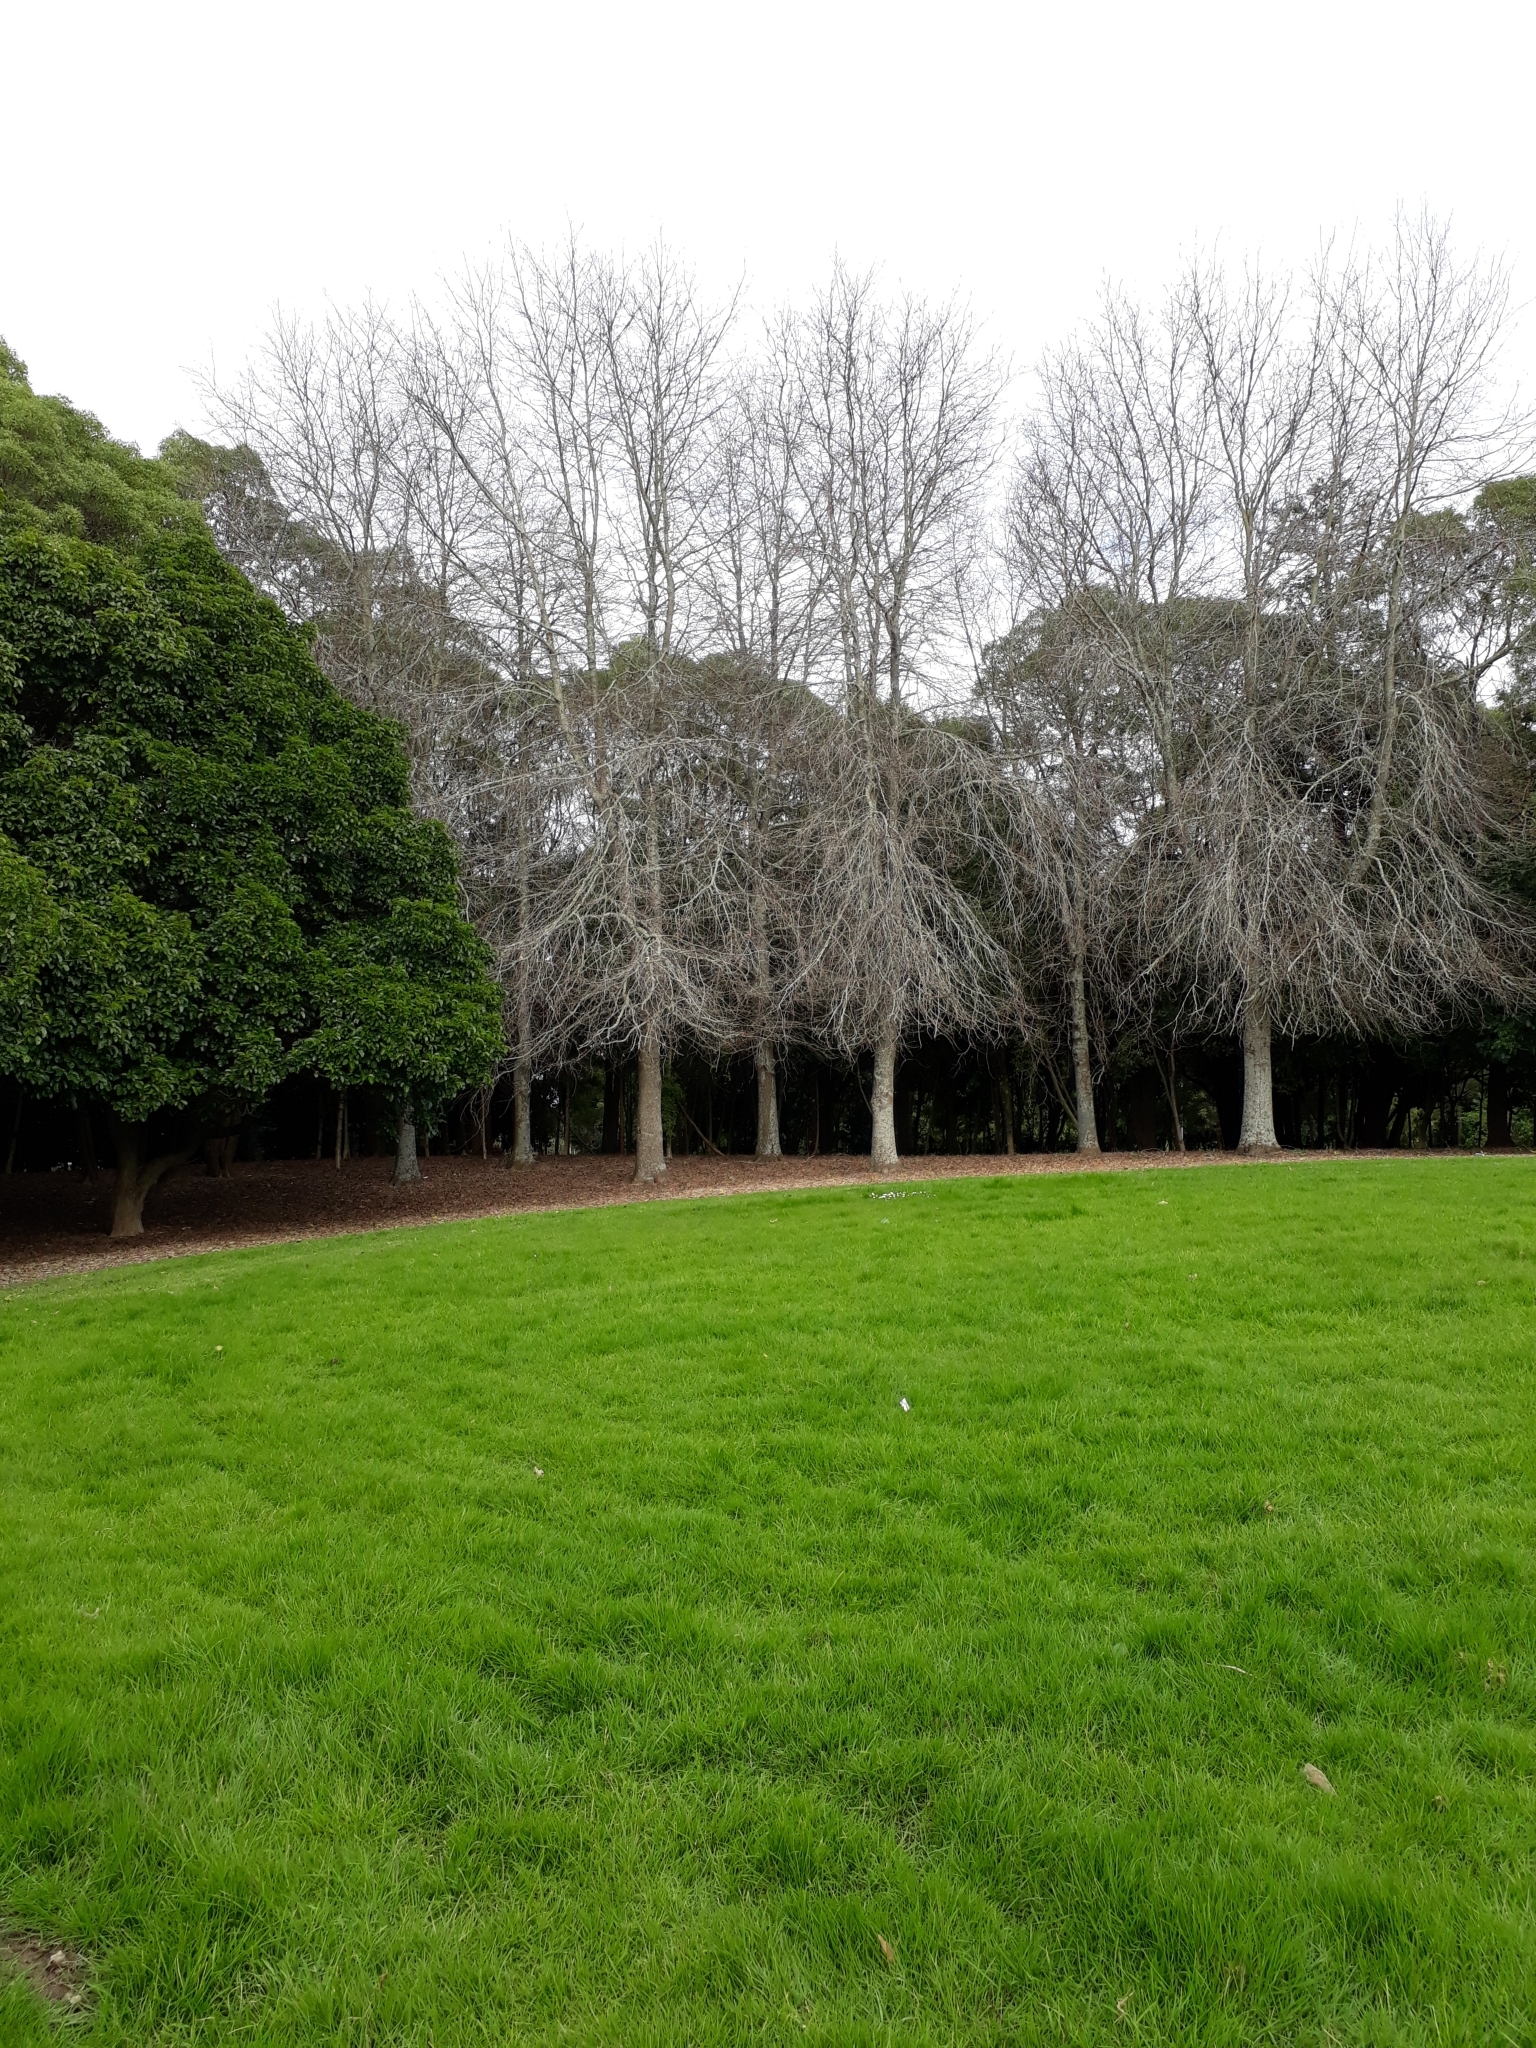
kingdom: Animalia
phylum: Chordata
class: Aves
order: Coraciiformes
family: Alcedinidae
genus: Todiramphus
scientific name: Todiramphus sanctus
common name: Sacred kingfisher
